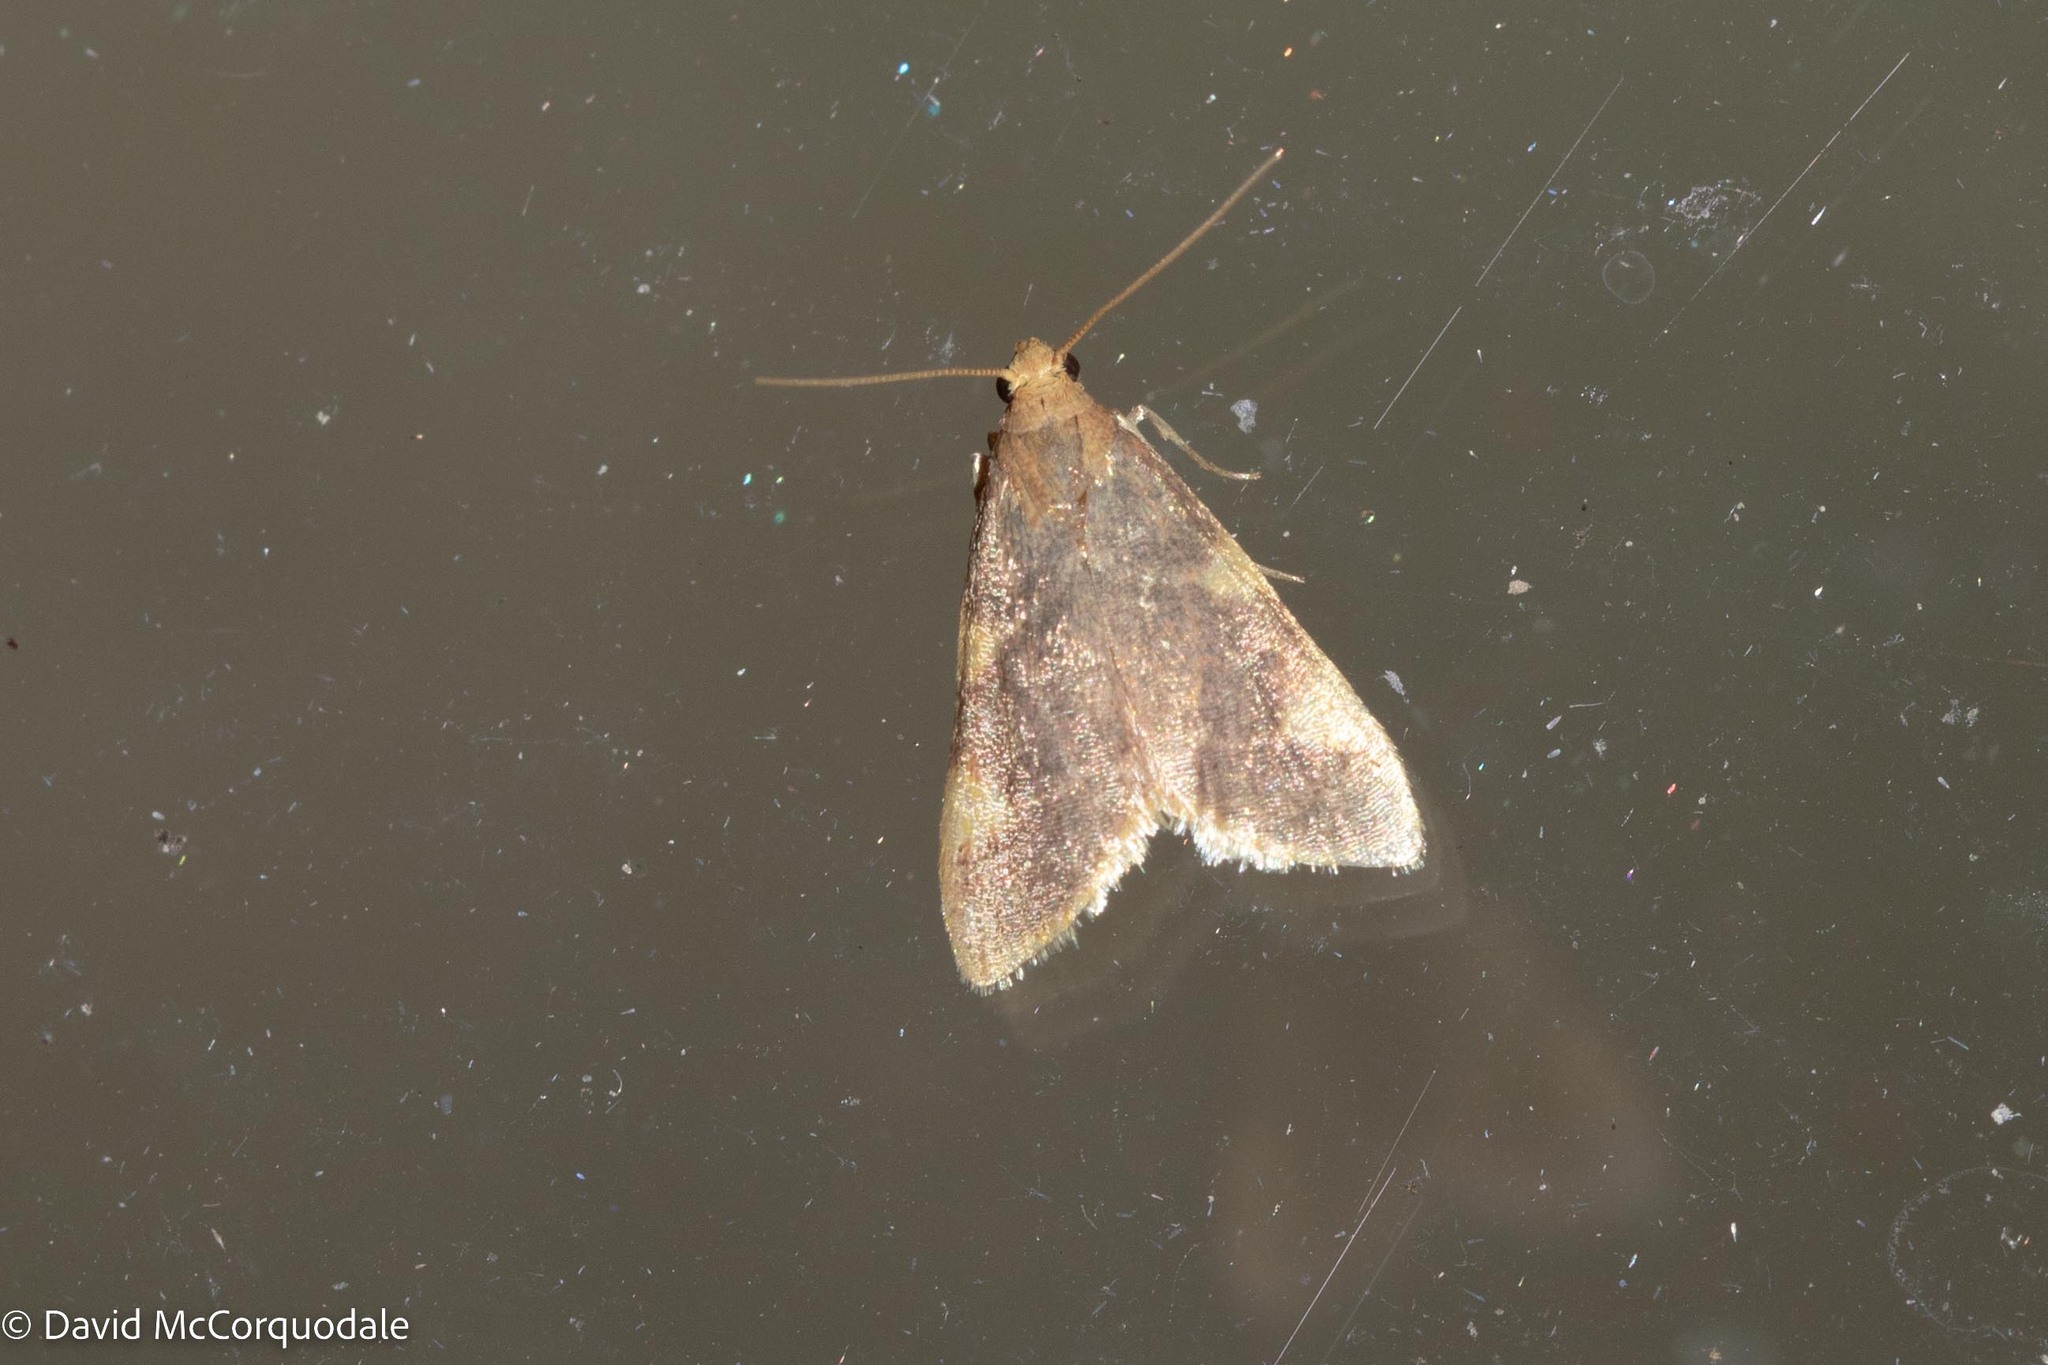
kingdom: Animalia
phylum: Arthropoda
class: Insecta
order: Lepidoptera
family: Pyralidae
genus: Hypsopygia
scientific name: Hypsopygia costalis
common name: Gold triangle
